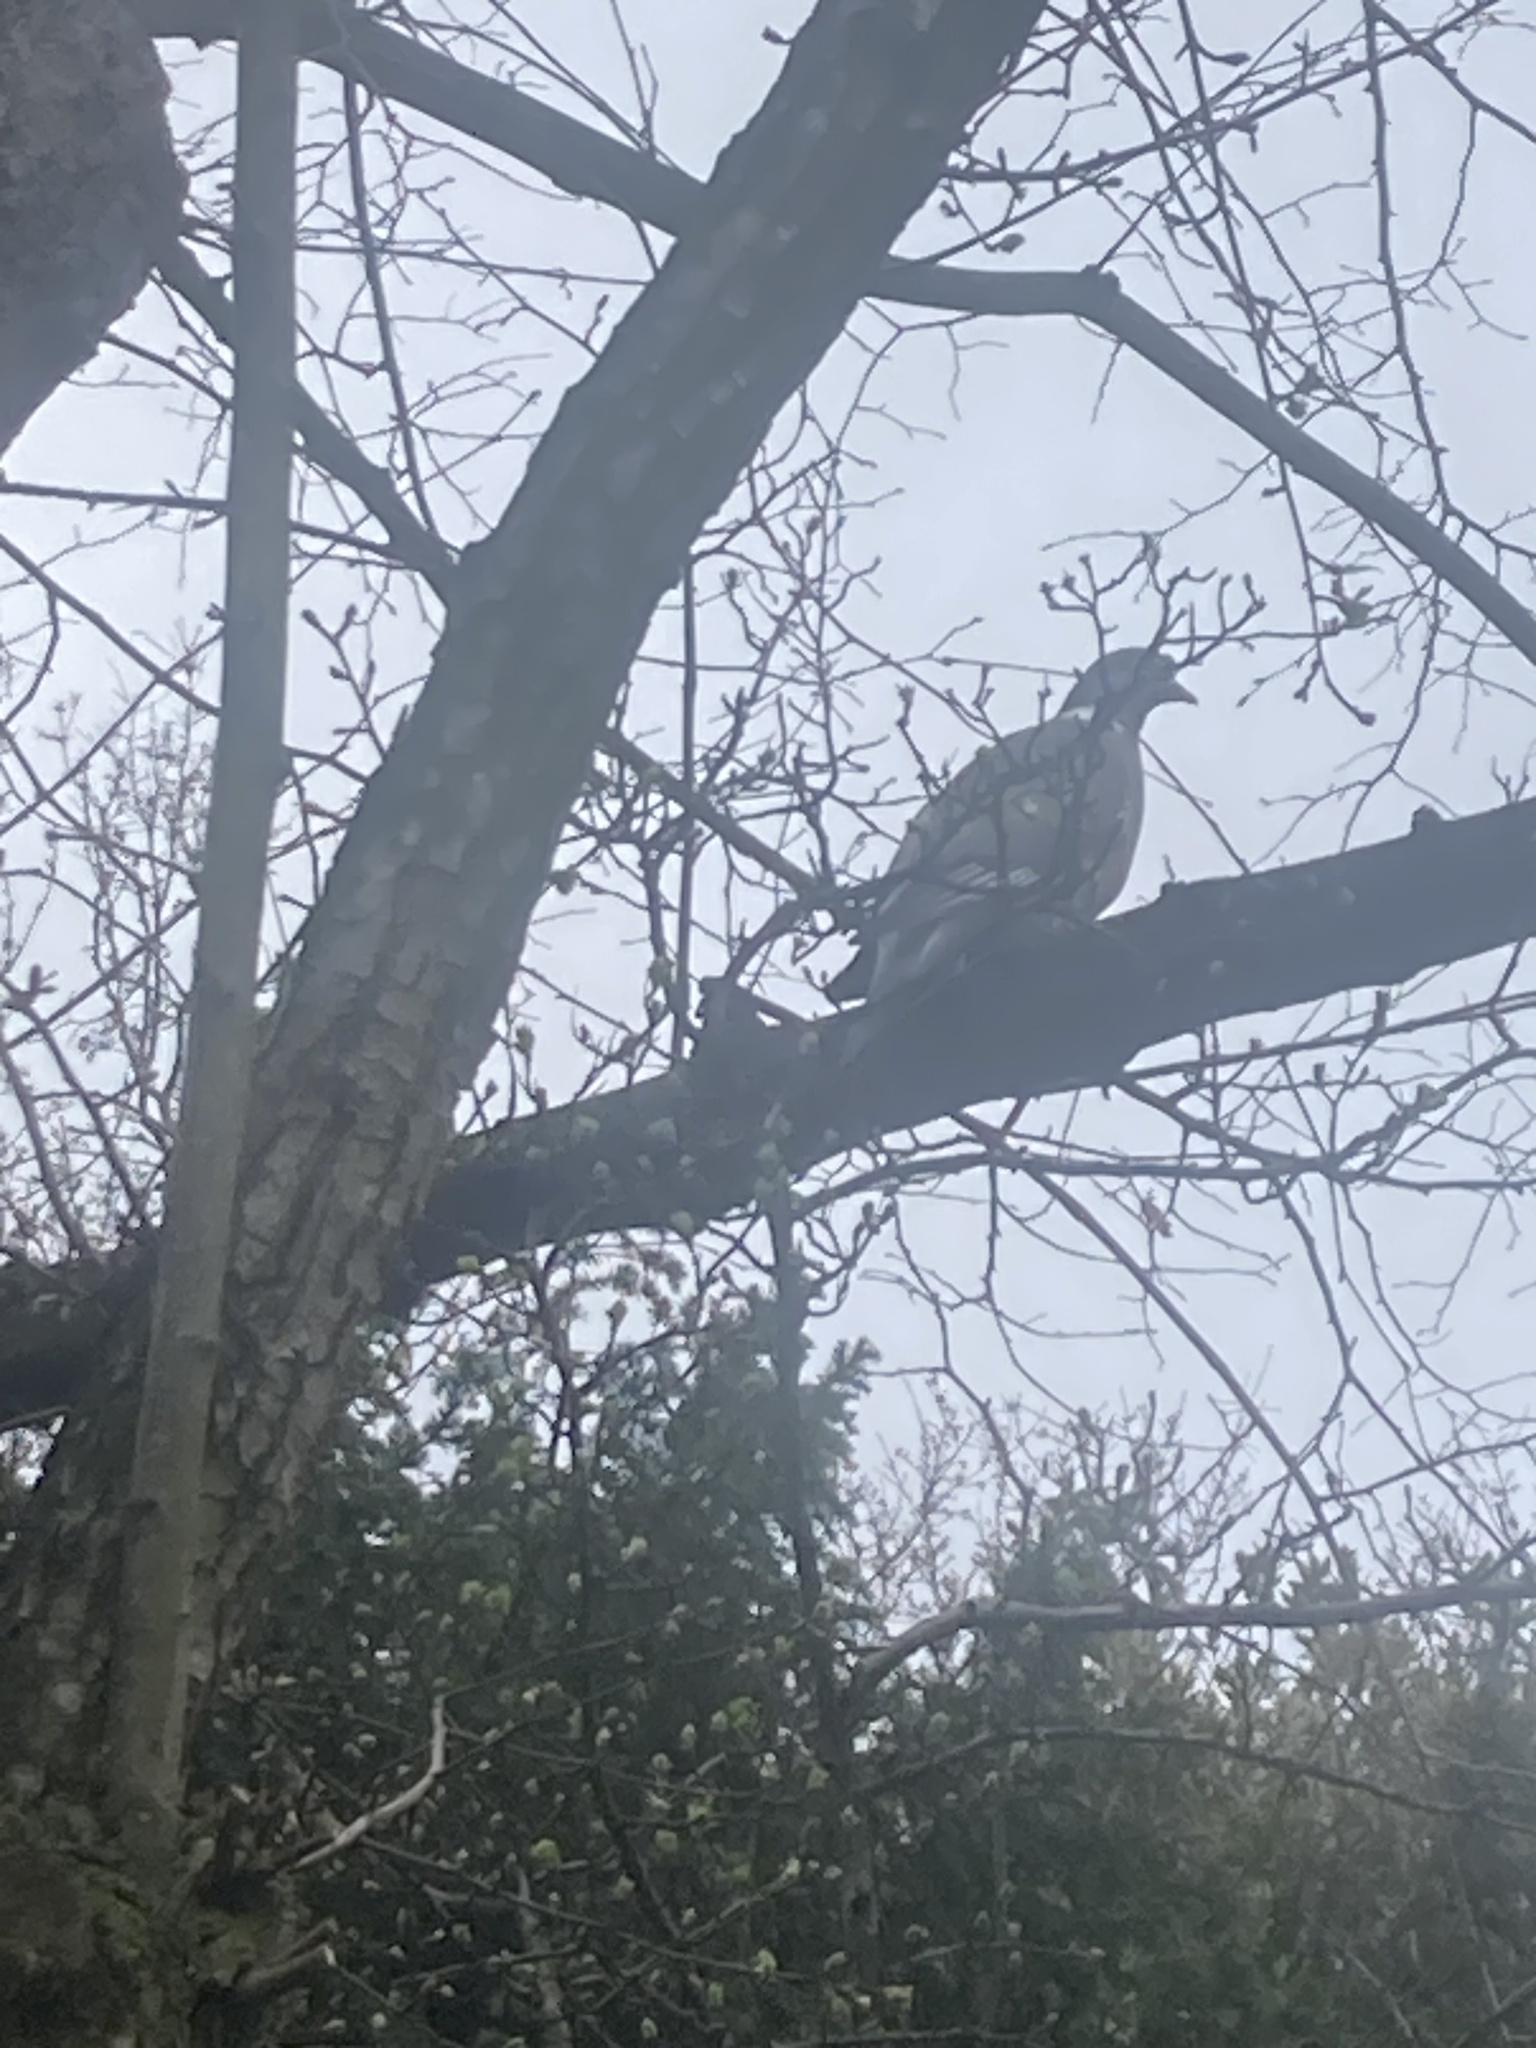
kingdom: Animalia
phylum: Chordata
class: Aves
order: Columbiformes
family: Columbidae
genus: Columba
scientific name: Columba palumbus
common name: Common wood pigeon
